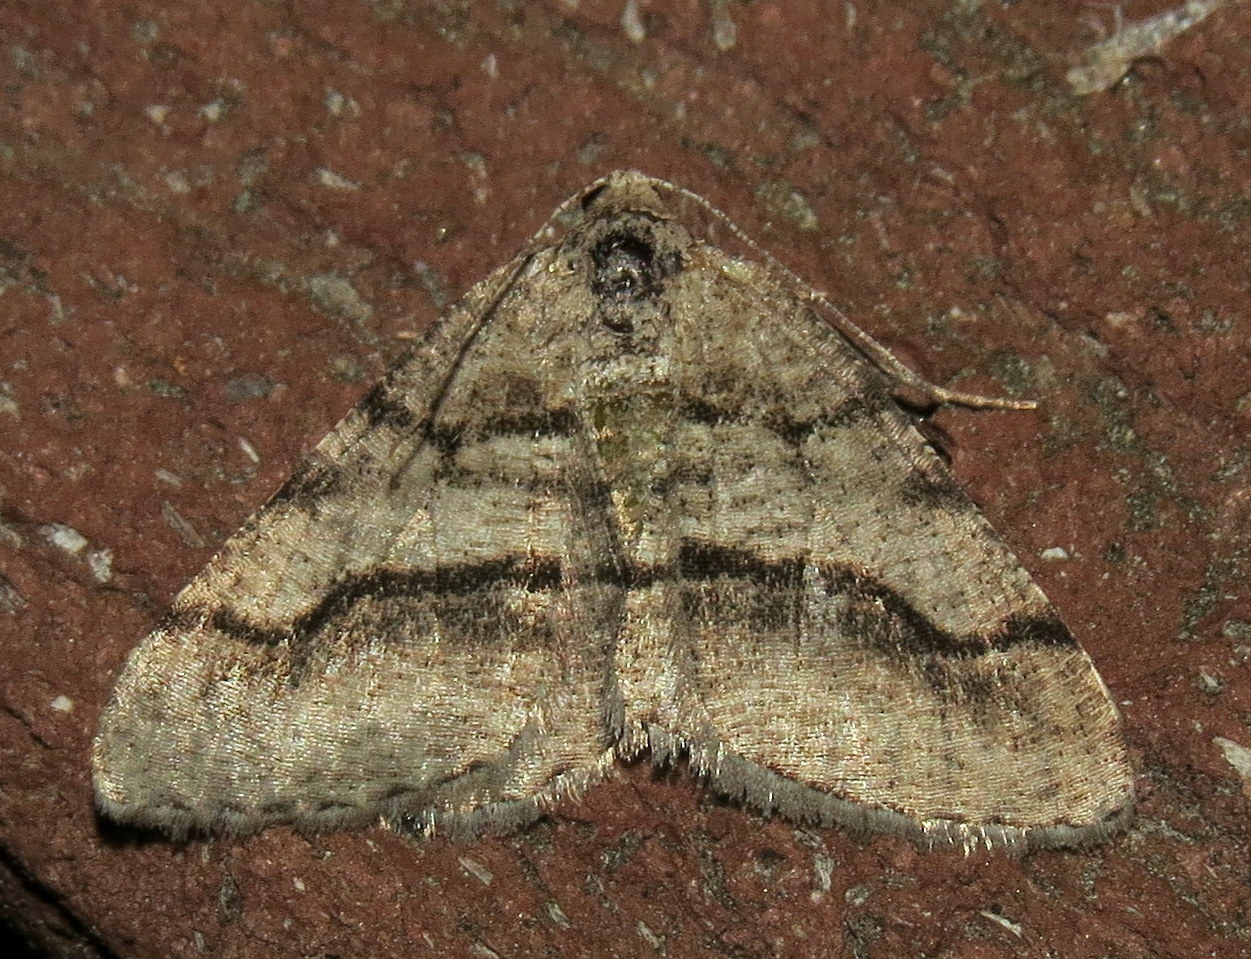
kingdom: Animalia
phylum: Arthropoda
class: Insecta
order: Lepidoptera
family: Geometridae
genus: Digrammia
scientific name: Digrammia continuata
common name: Curve-lined angle
